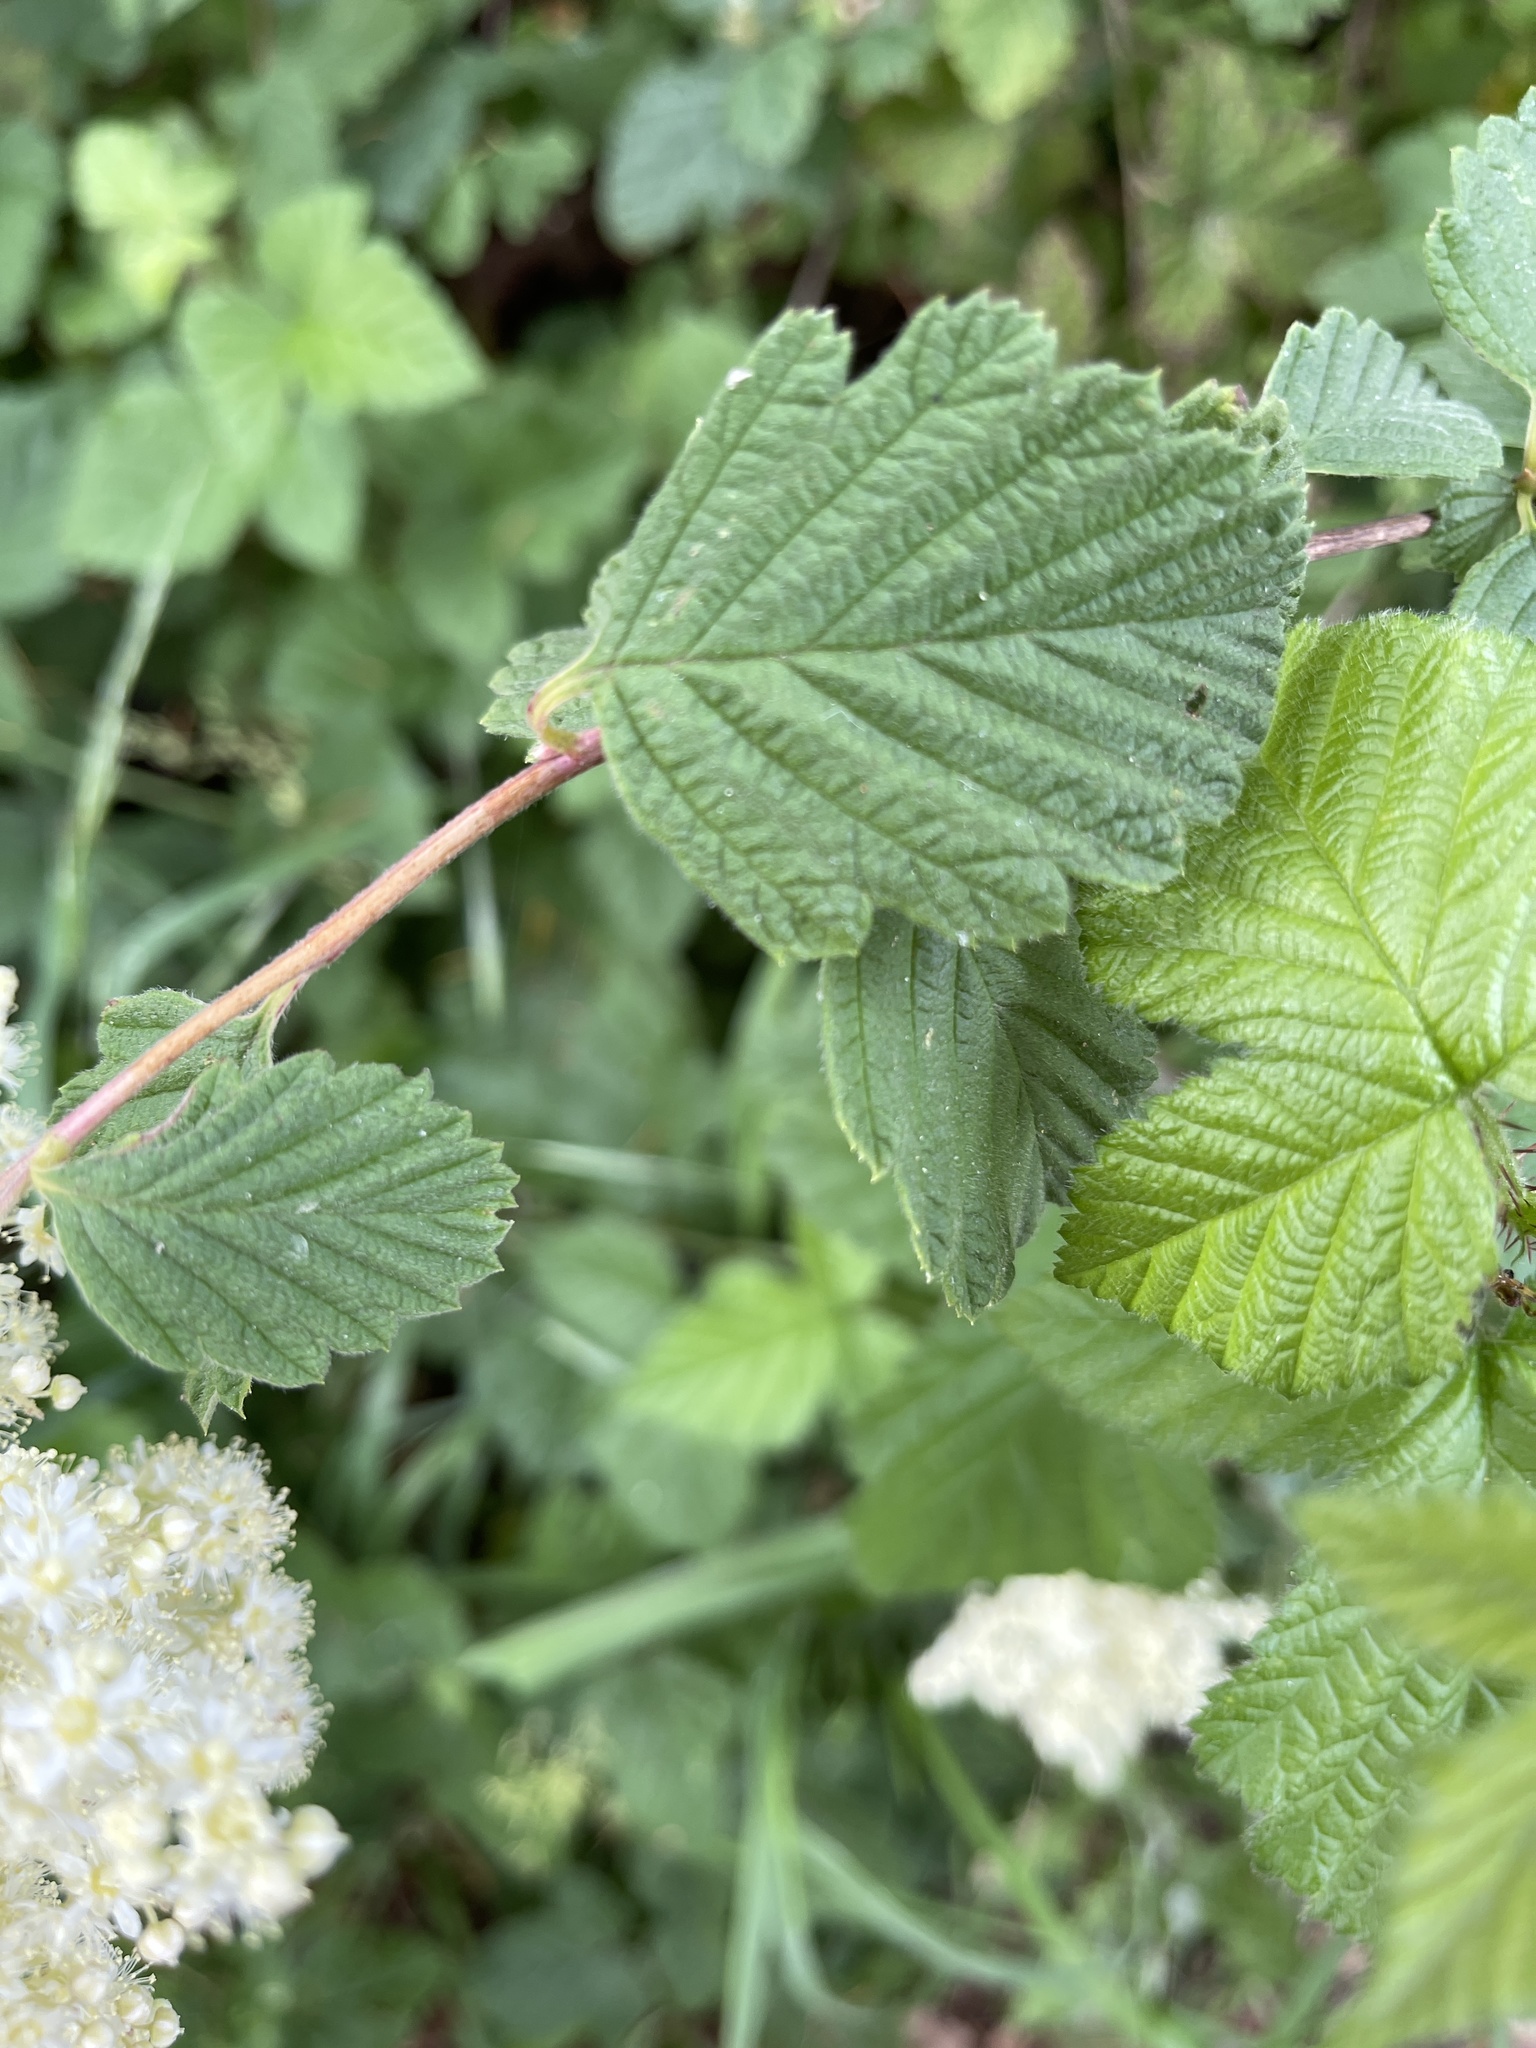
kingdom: Plantae
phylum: Tracheophyta
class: Magnoliopsida
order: Rosales
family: Rosaceae
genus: Holodiscus
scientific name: Holodiscus discolor
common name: Oceanspray
